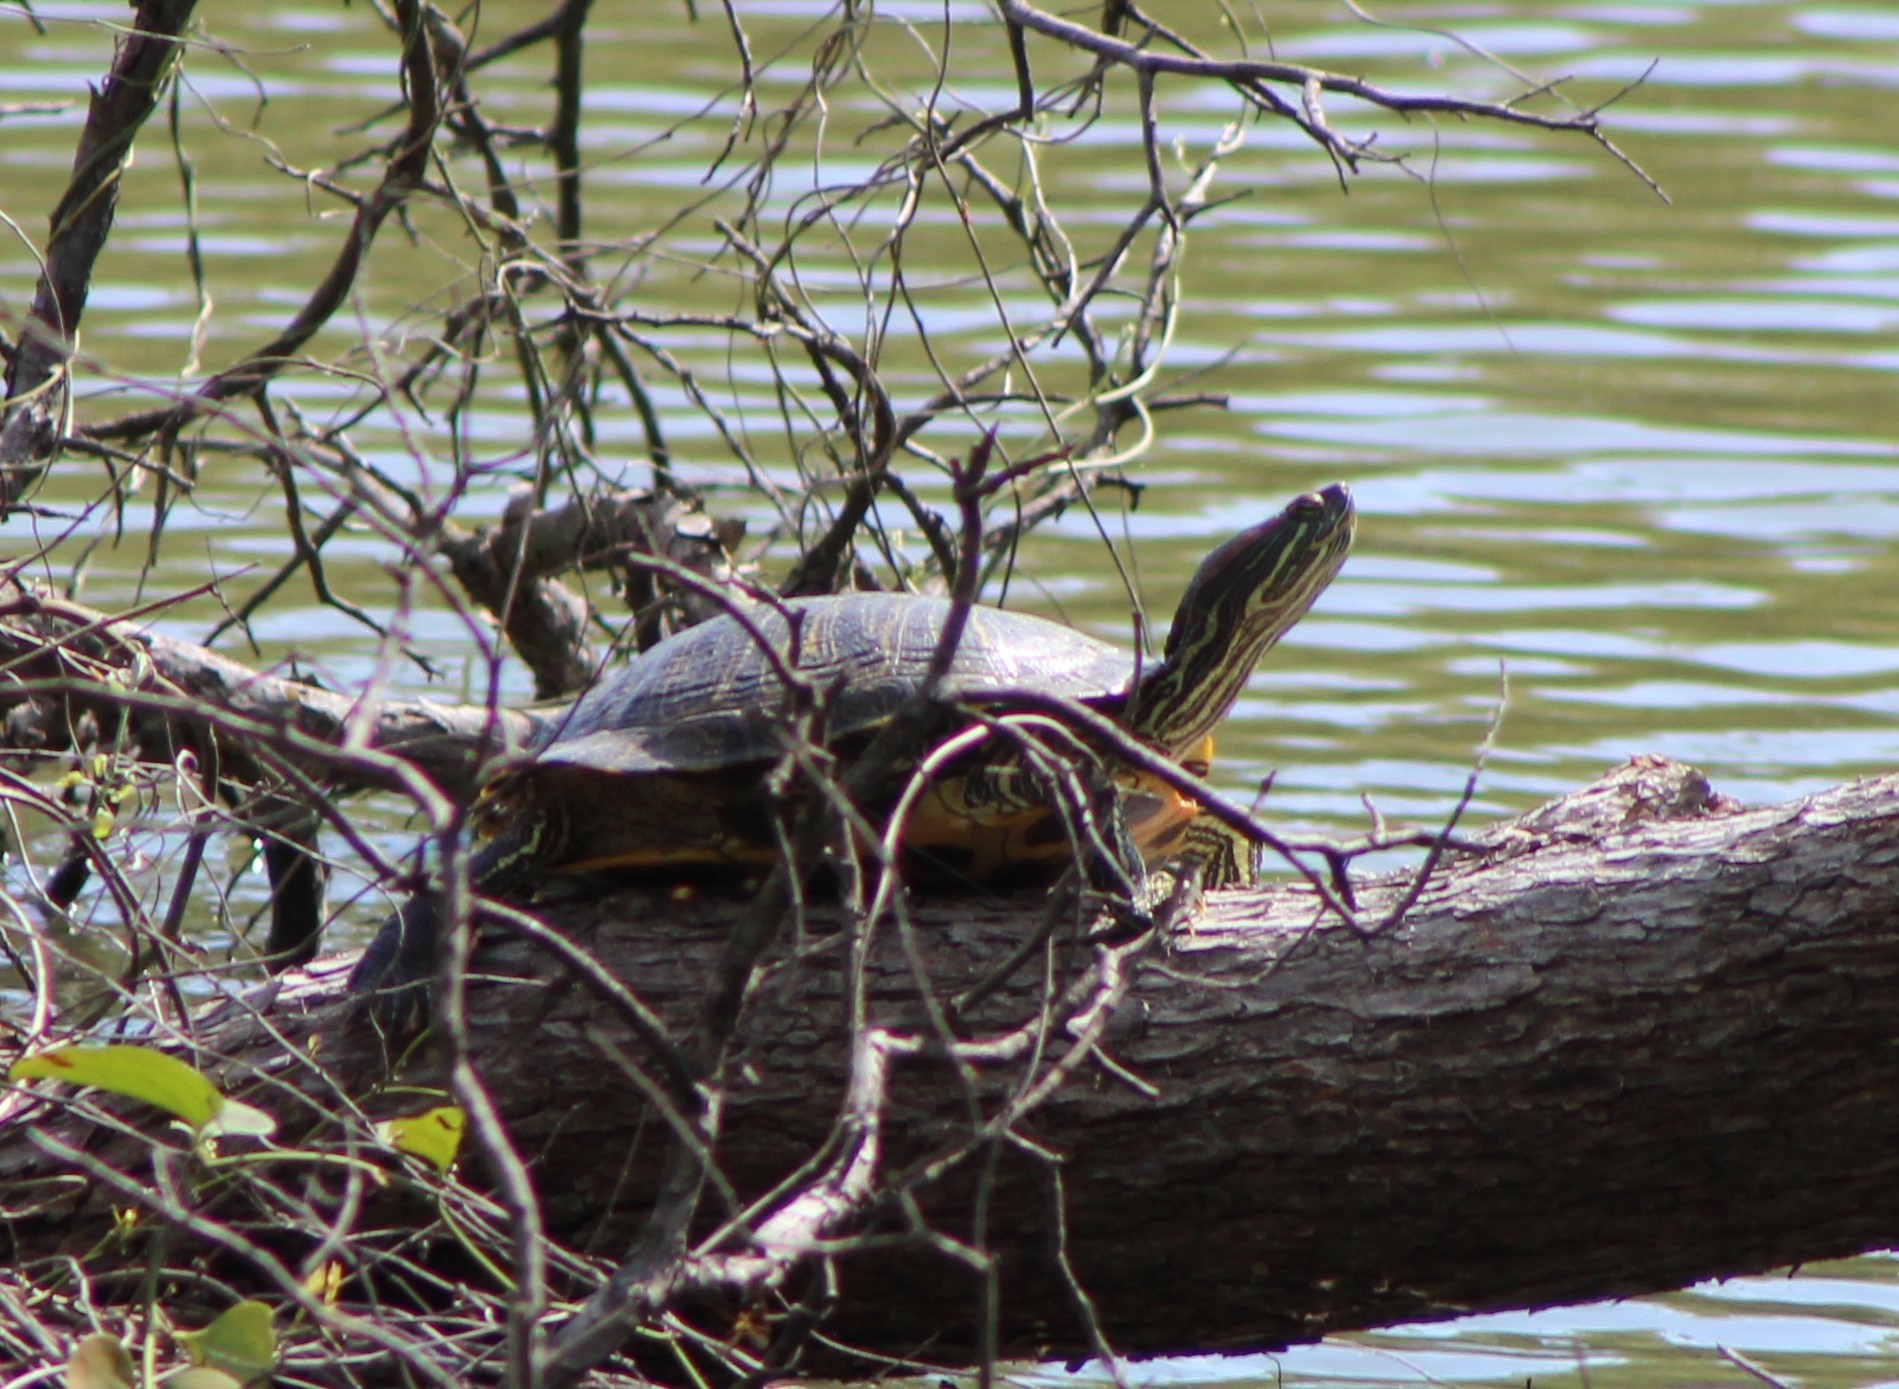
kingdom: Animalia
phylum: Chordata
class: Testudines
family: Emydidae
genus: Trachemys
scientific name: Trachemys scripta
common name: Slider
